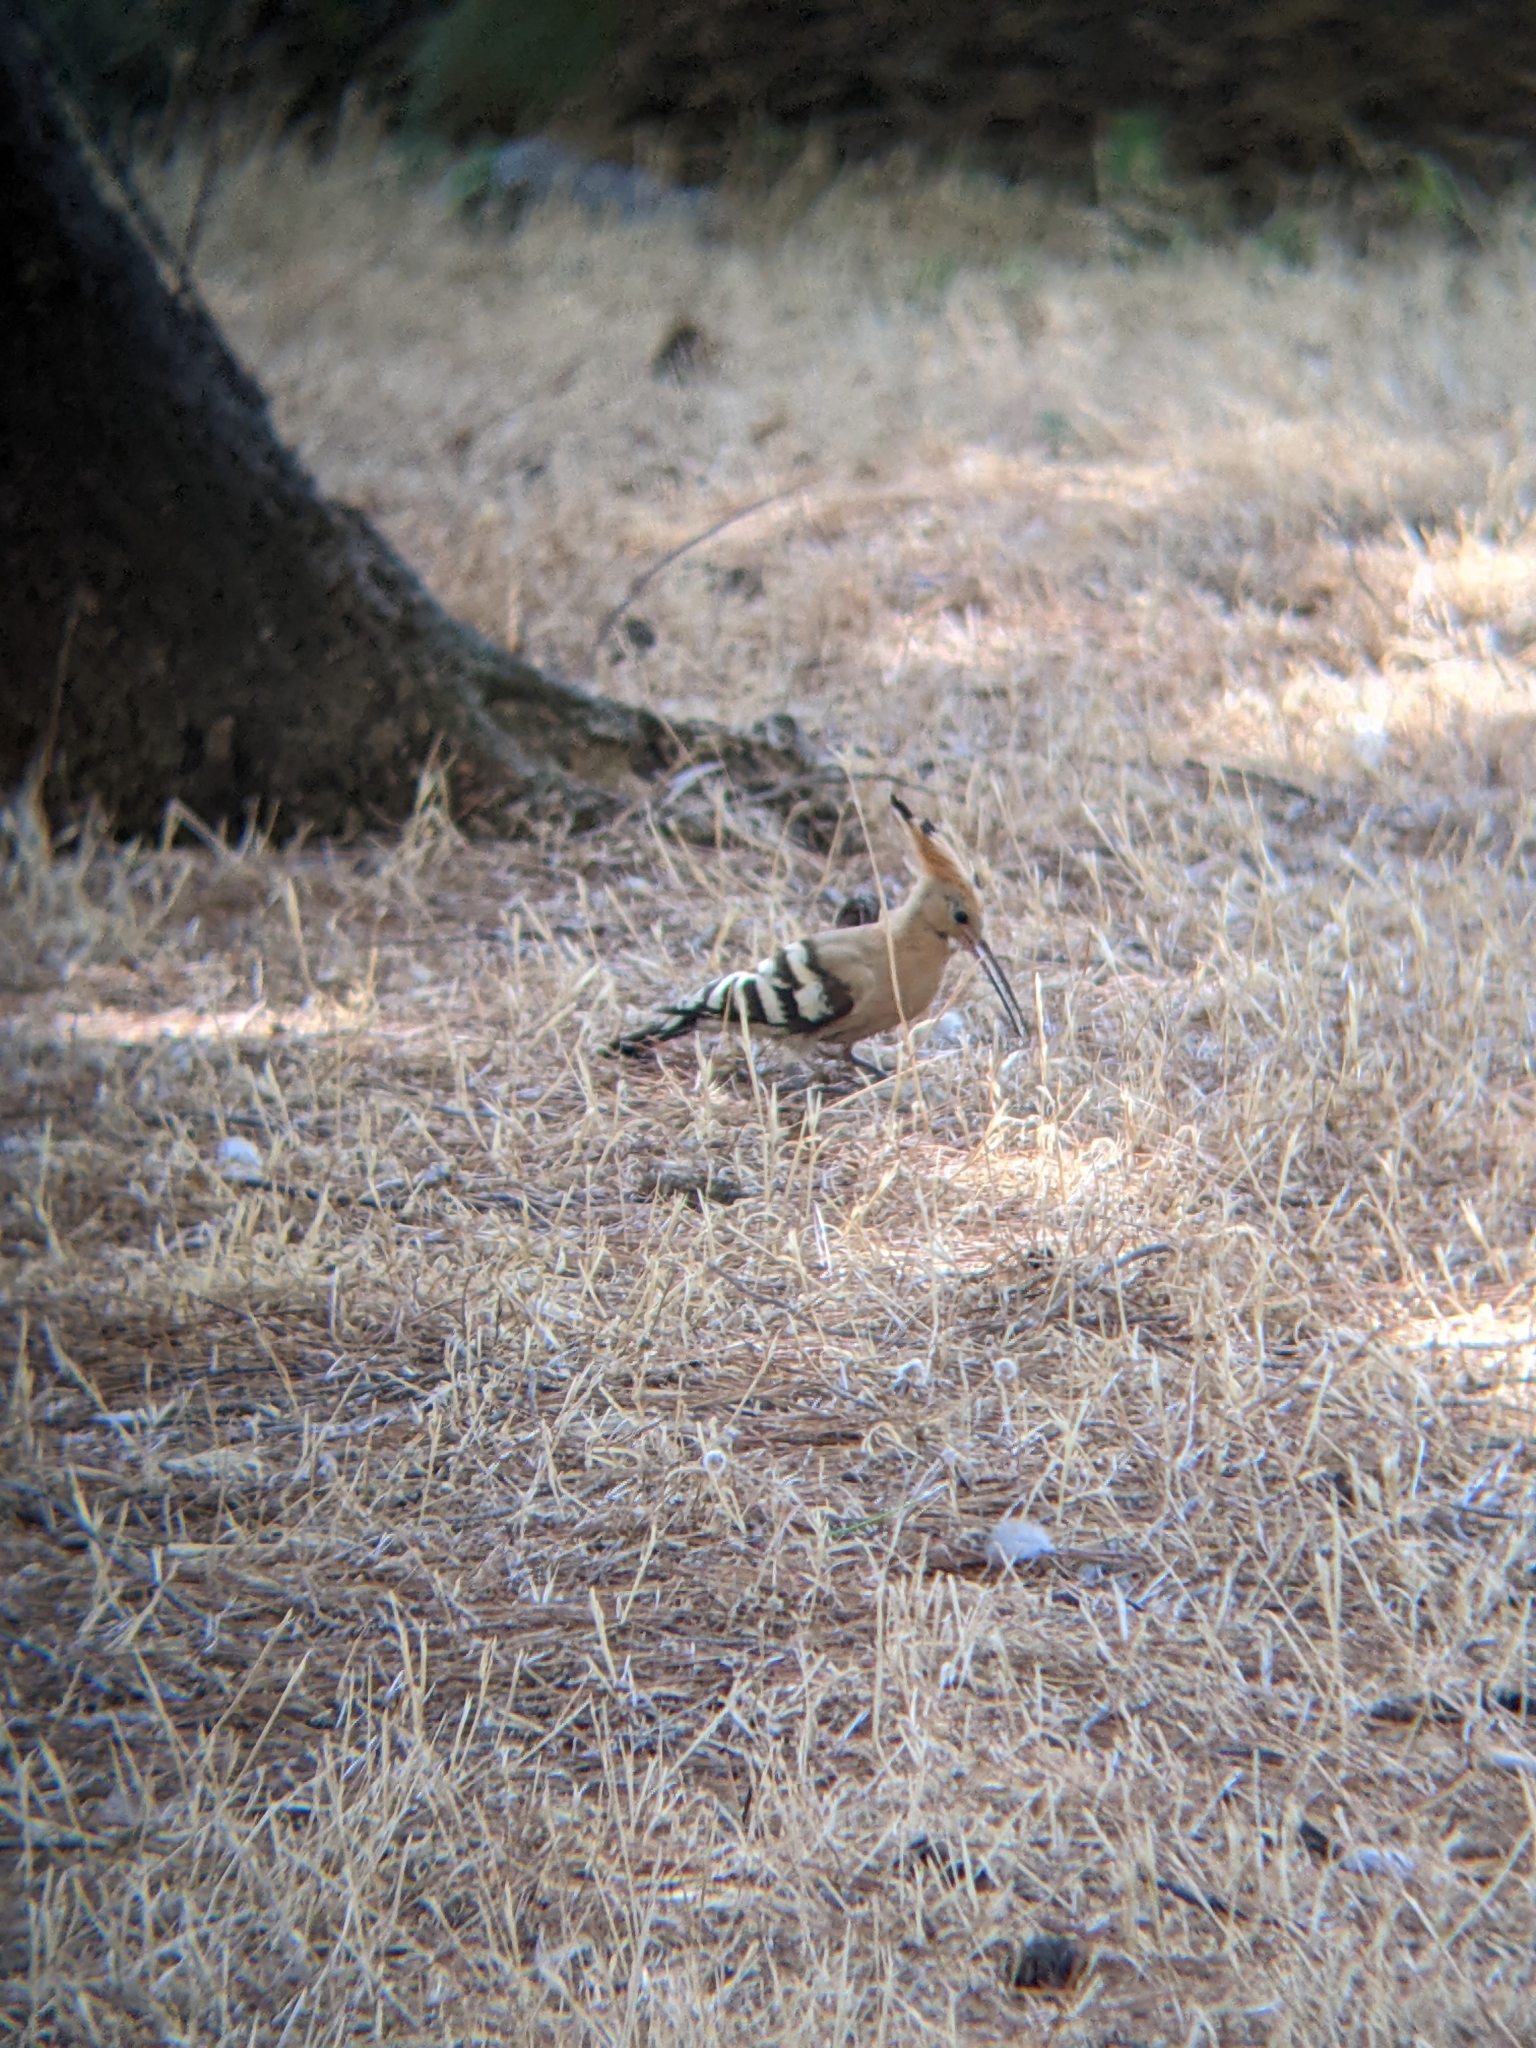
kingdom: Animalia
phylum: Chordata
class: Aves
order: Bucerotiformes
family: Upupidae
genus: Upupa
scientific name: Upupa epops
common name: Eurasian hoopoe
